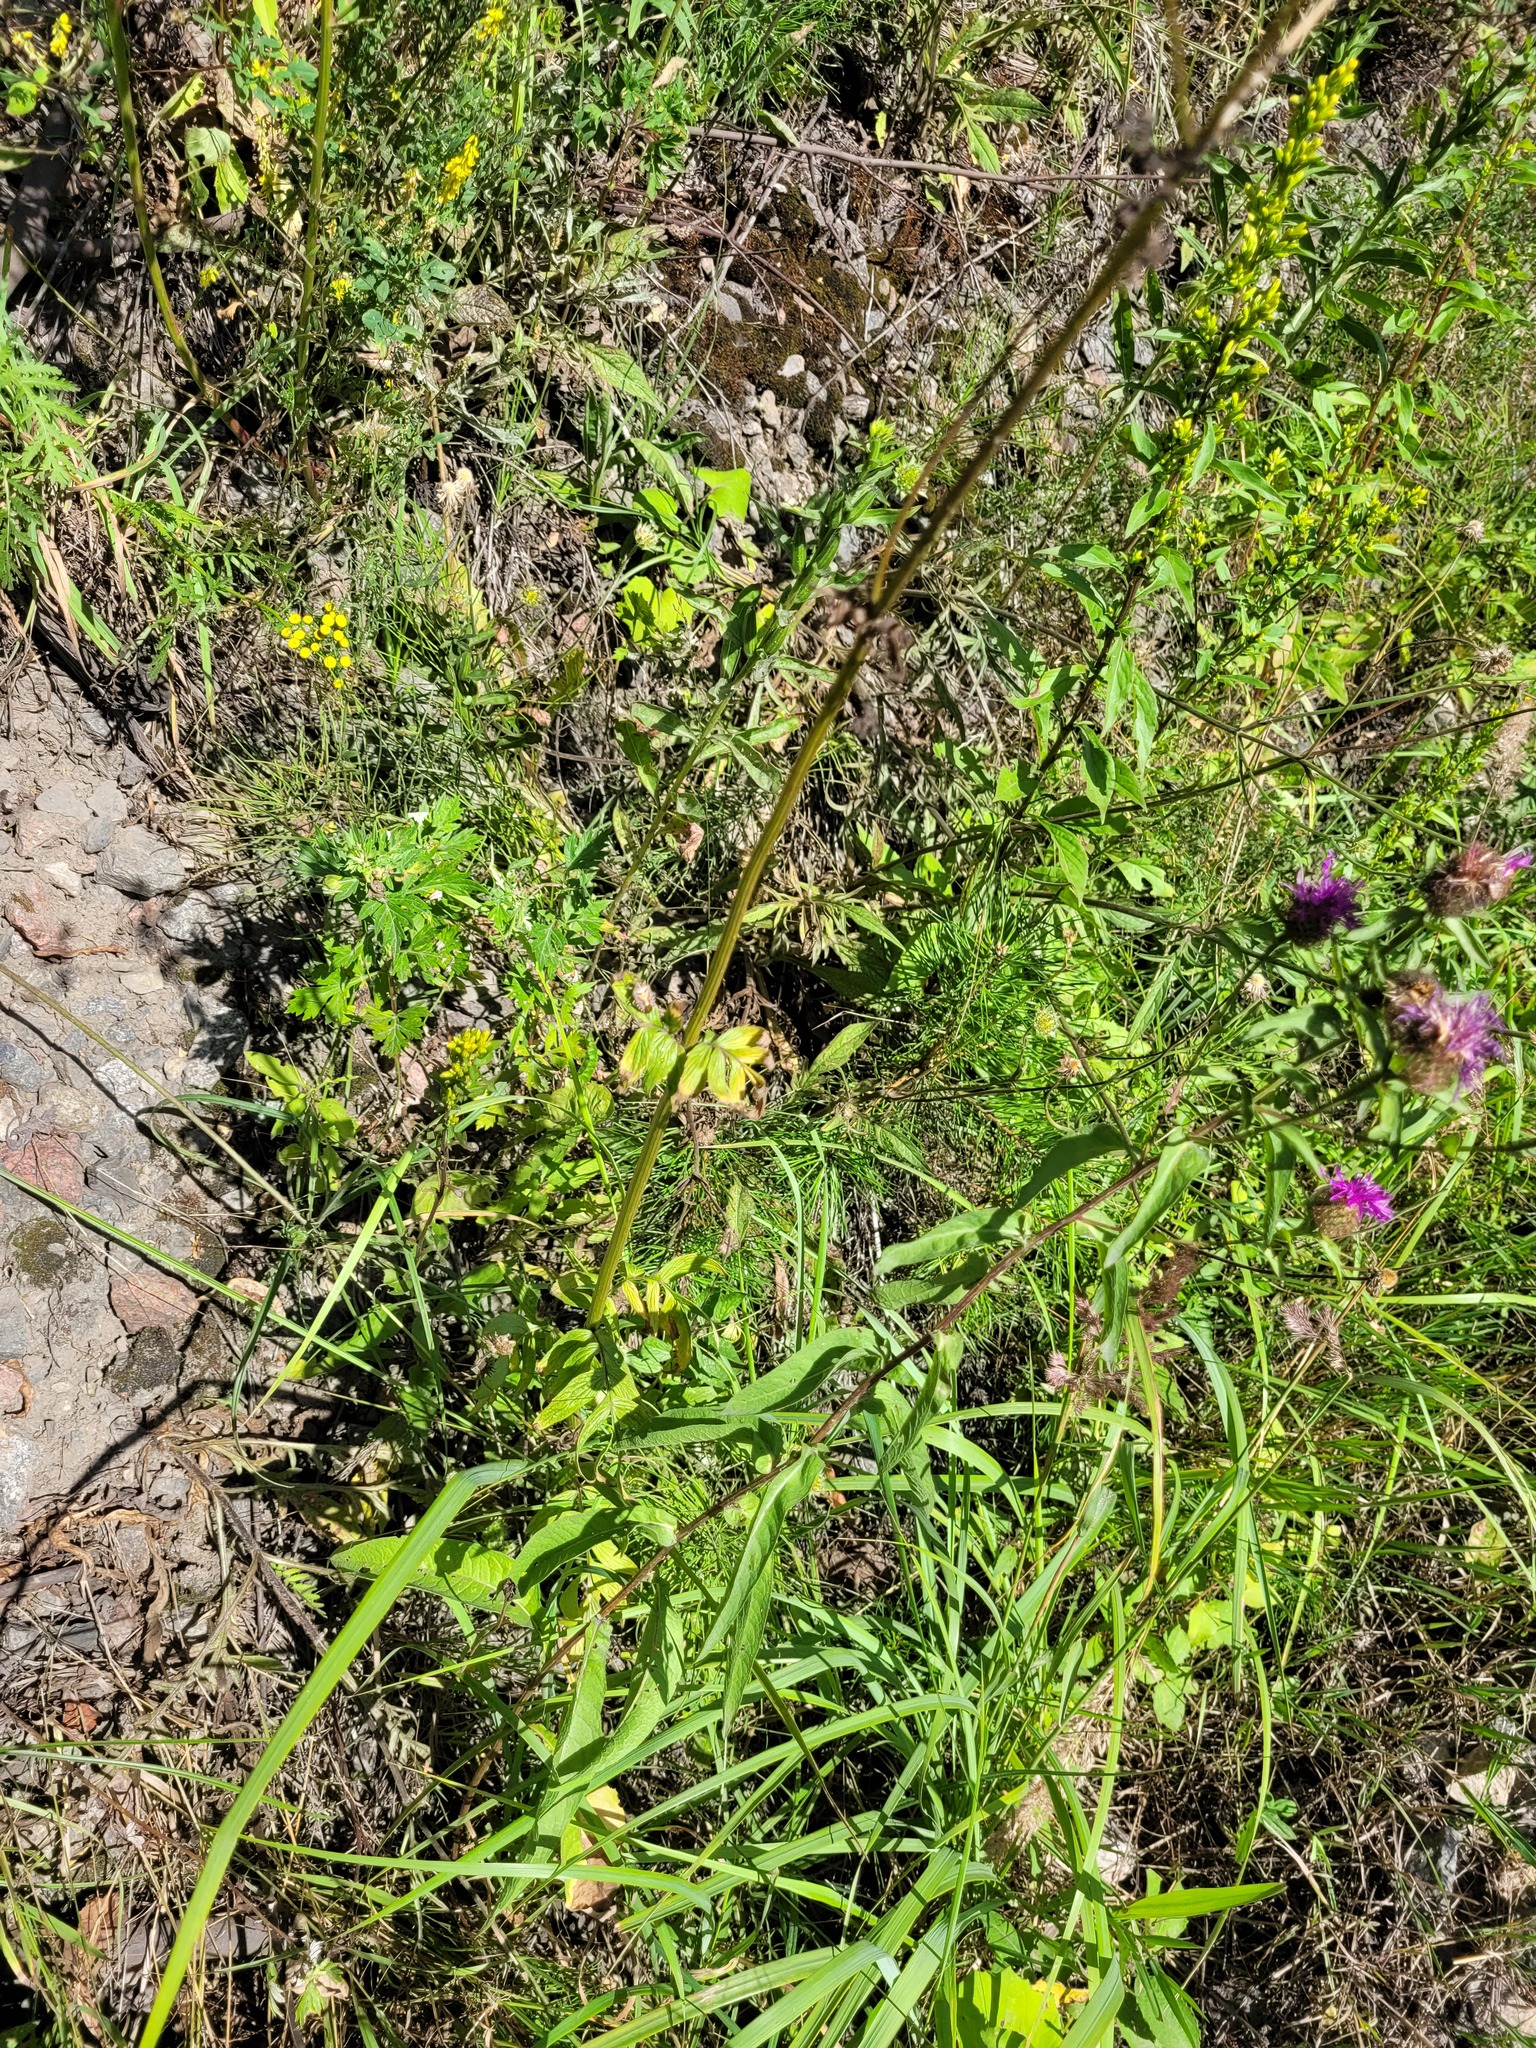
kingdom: Plantae
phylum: Tracheophyta
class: Magnoliopsida
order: Dipsacales
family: Caprifoliaceae
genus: Valeriana
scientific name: Valeriana officinalis
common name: Common valerian
